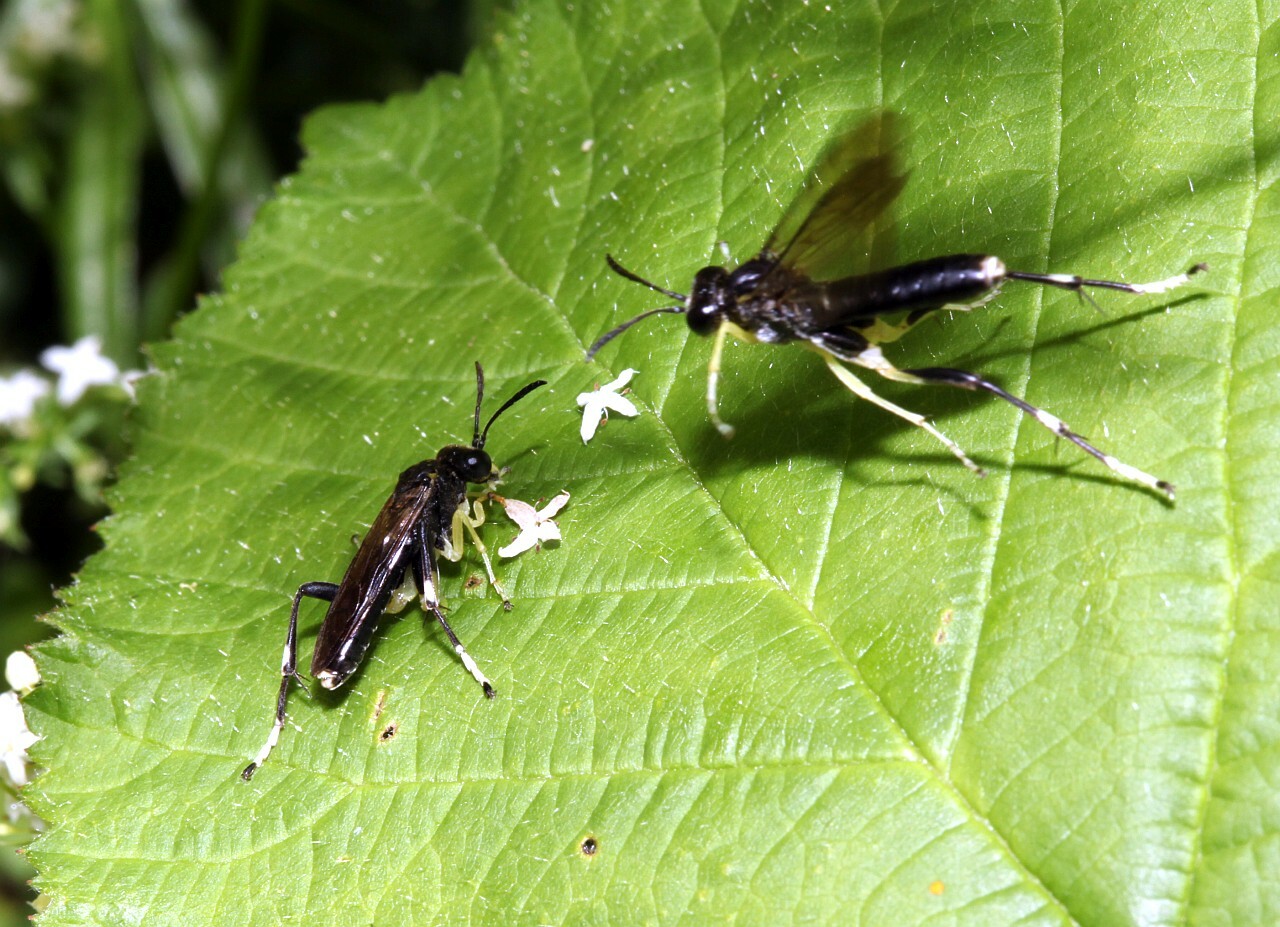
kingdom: Animalia
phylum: Arthropoda
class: Insecta
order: Hymenoptera
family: Tenthredinidae
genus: Macrophya
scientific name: Macrophya montana
